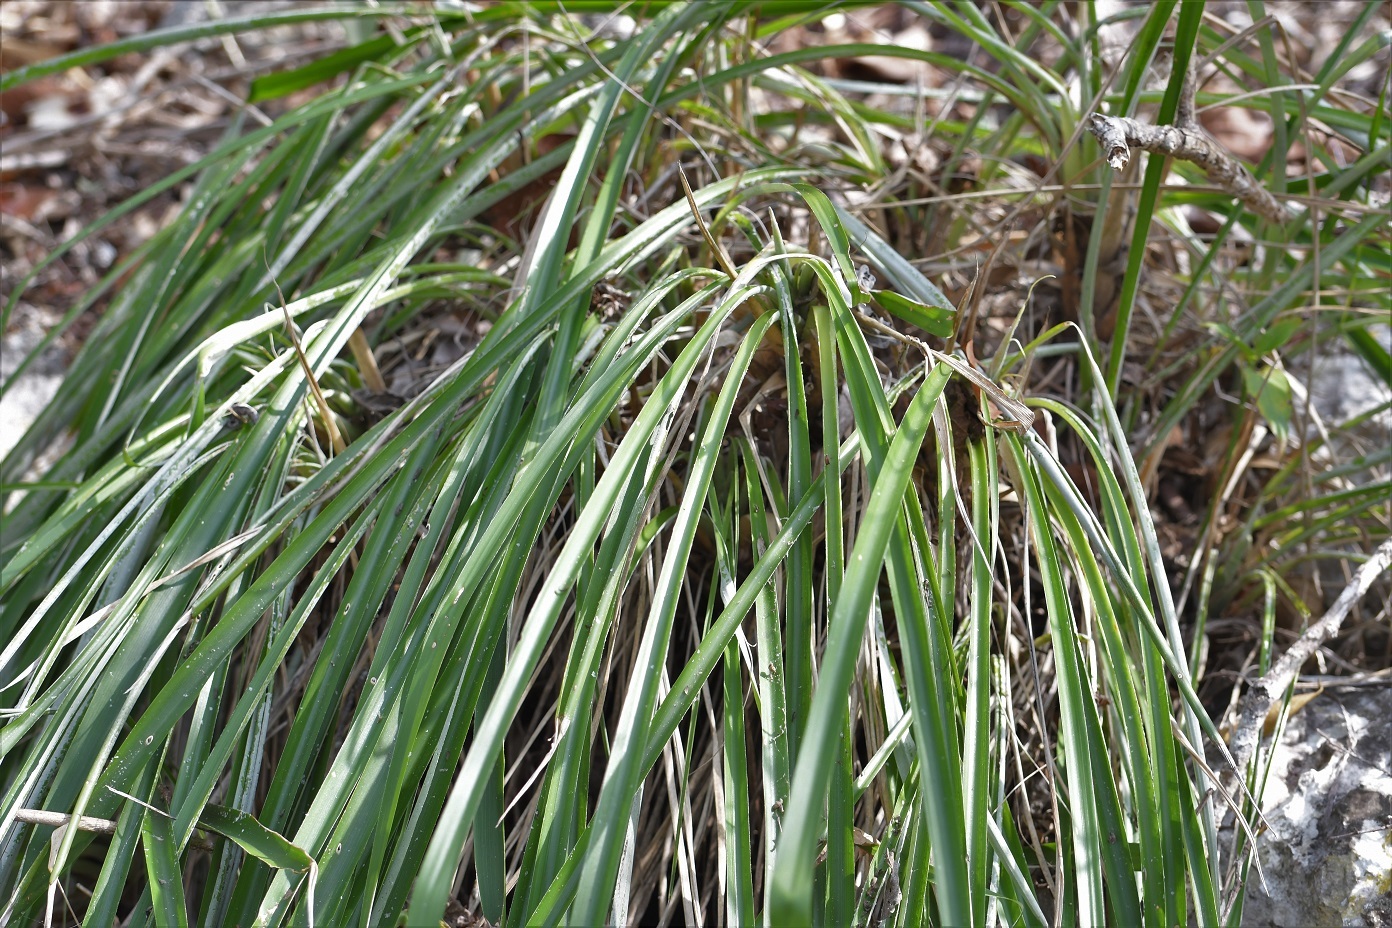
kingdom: Plantae
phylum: Tracheophyta
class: Liliopsida
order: Poales
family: Bromeliaceae
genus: Pitcairnia
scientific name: Pitcairnia breedlovei
